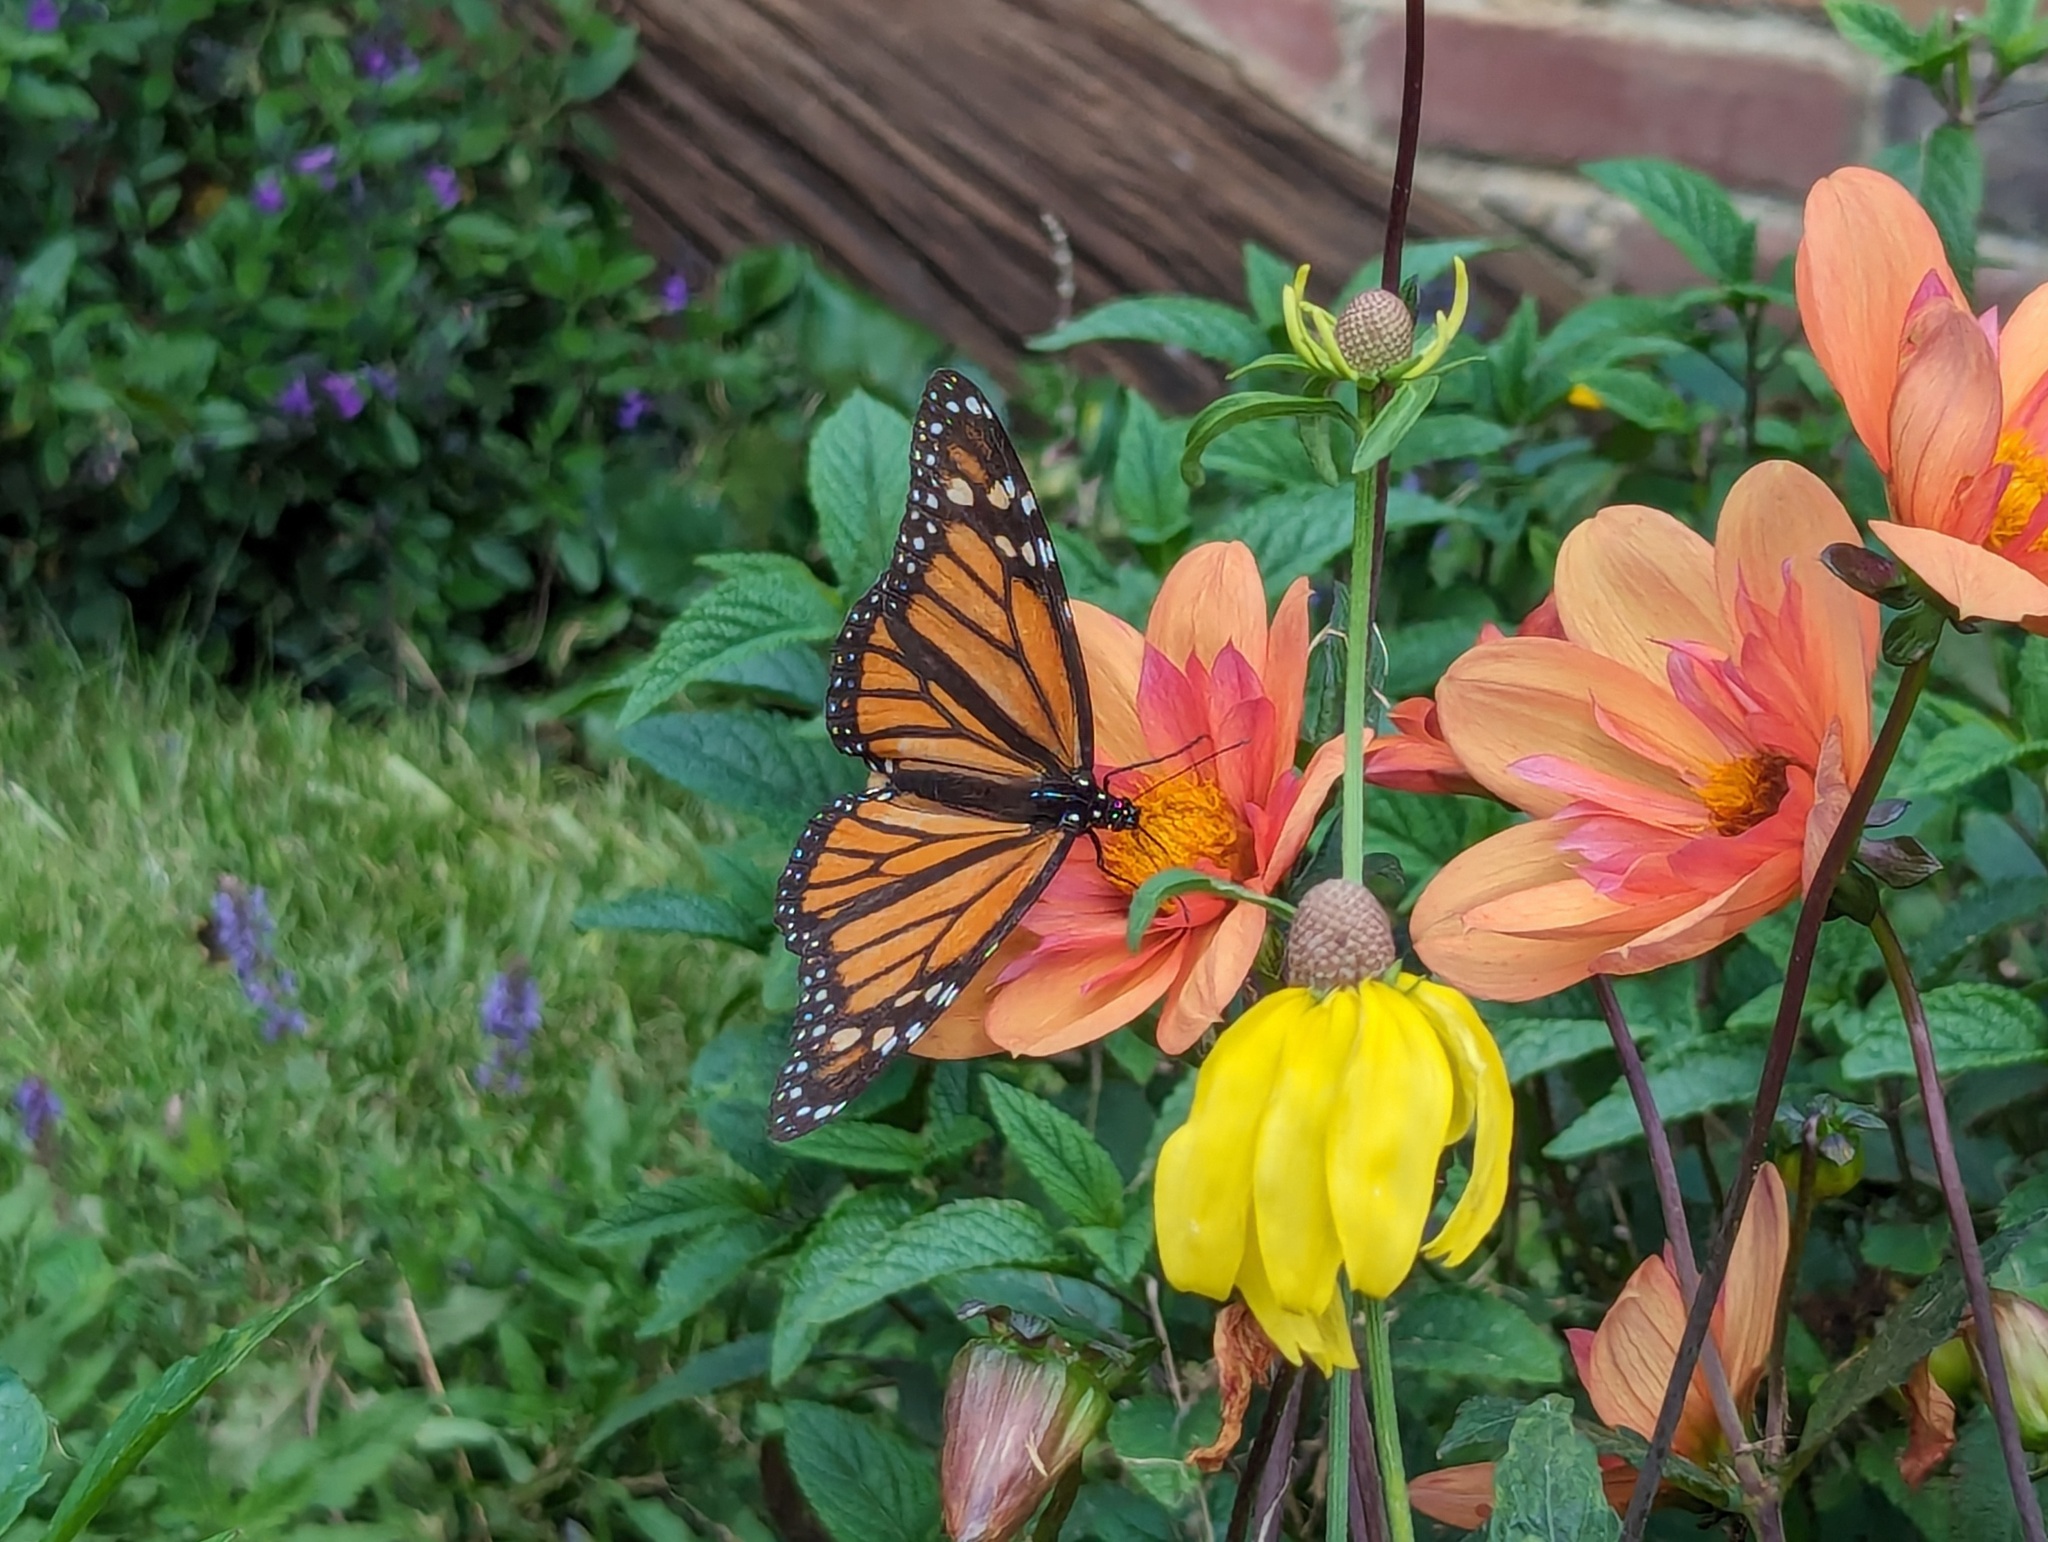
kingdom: Animalia
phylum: Arthropoda
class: Insecta
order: Lepidoptera
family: Nymphalidae
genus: Danaus
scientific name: Danaus plexippus
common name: Monarch
